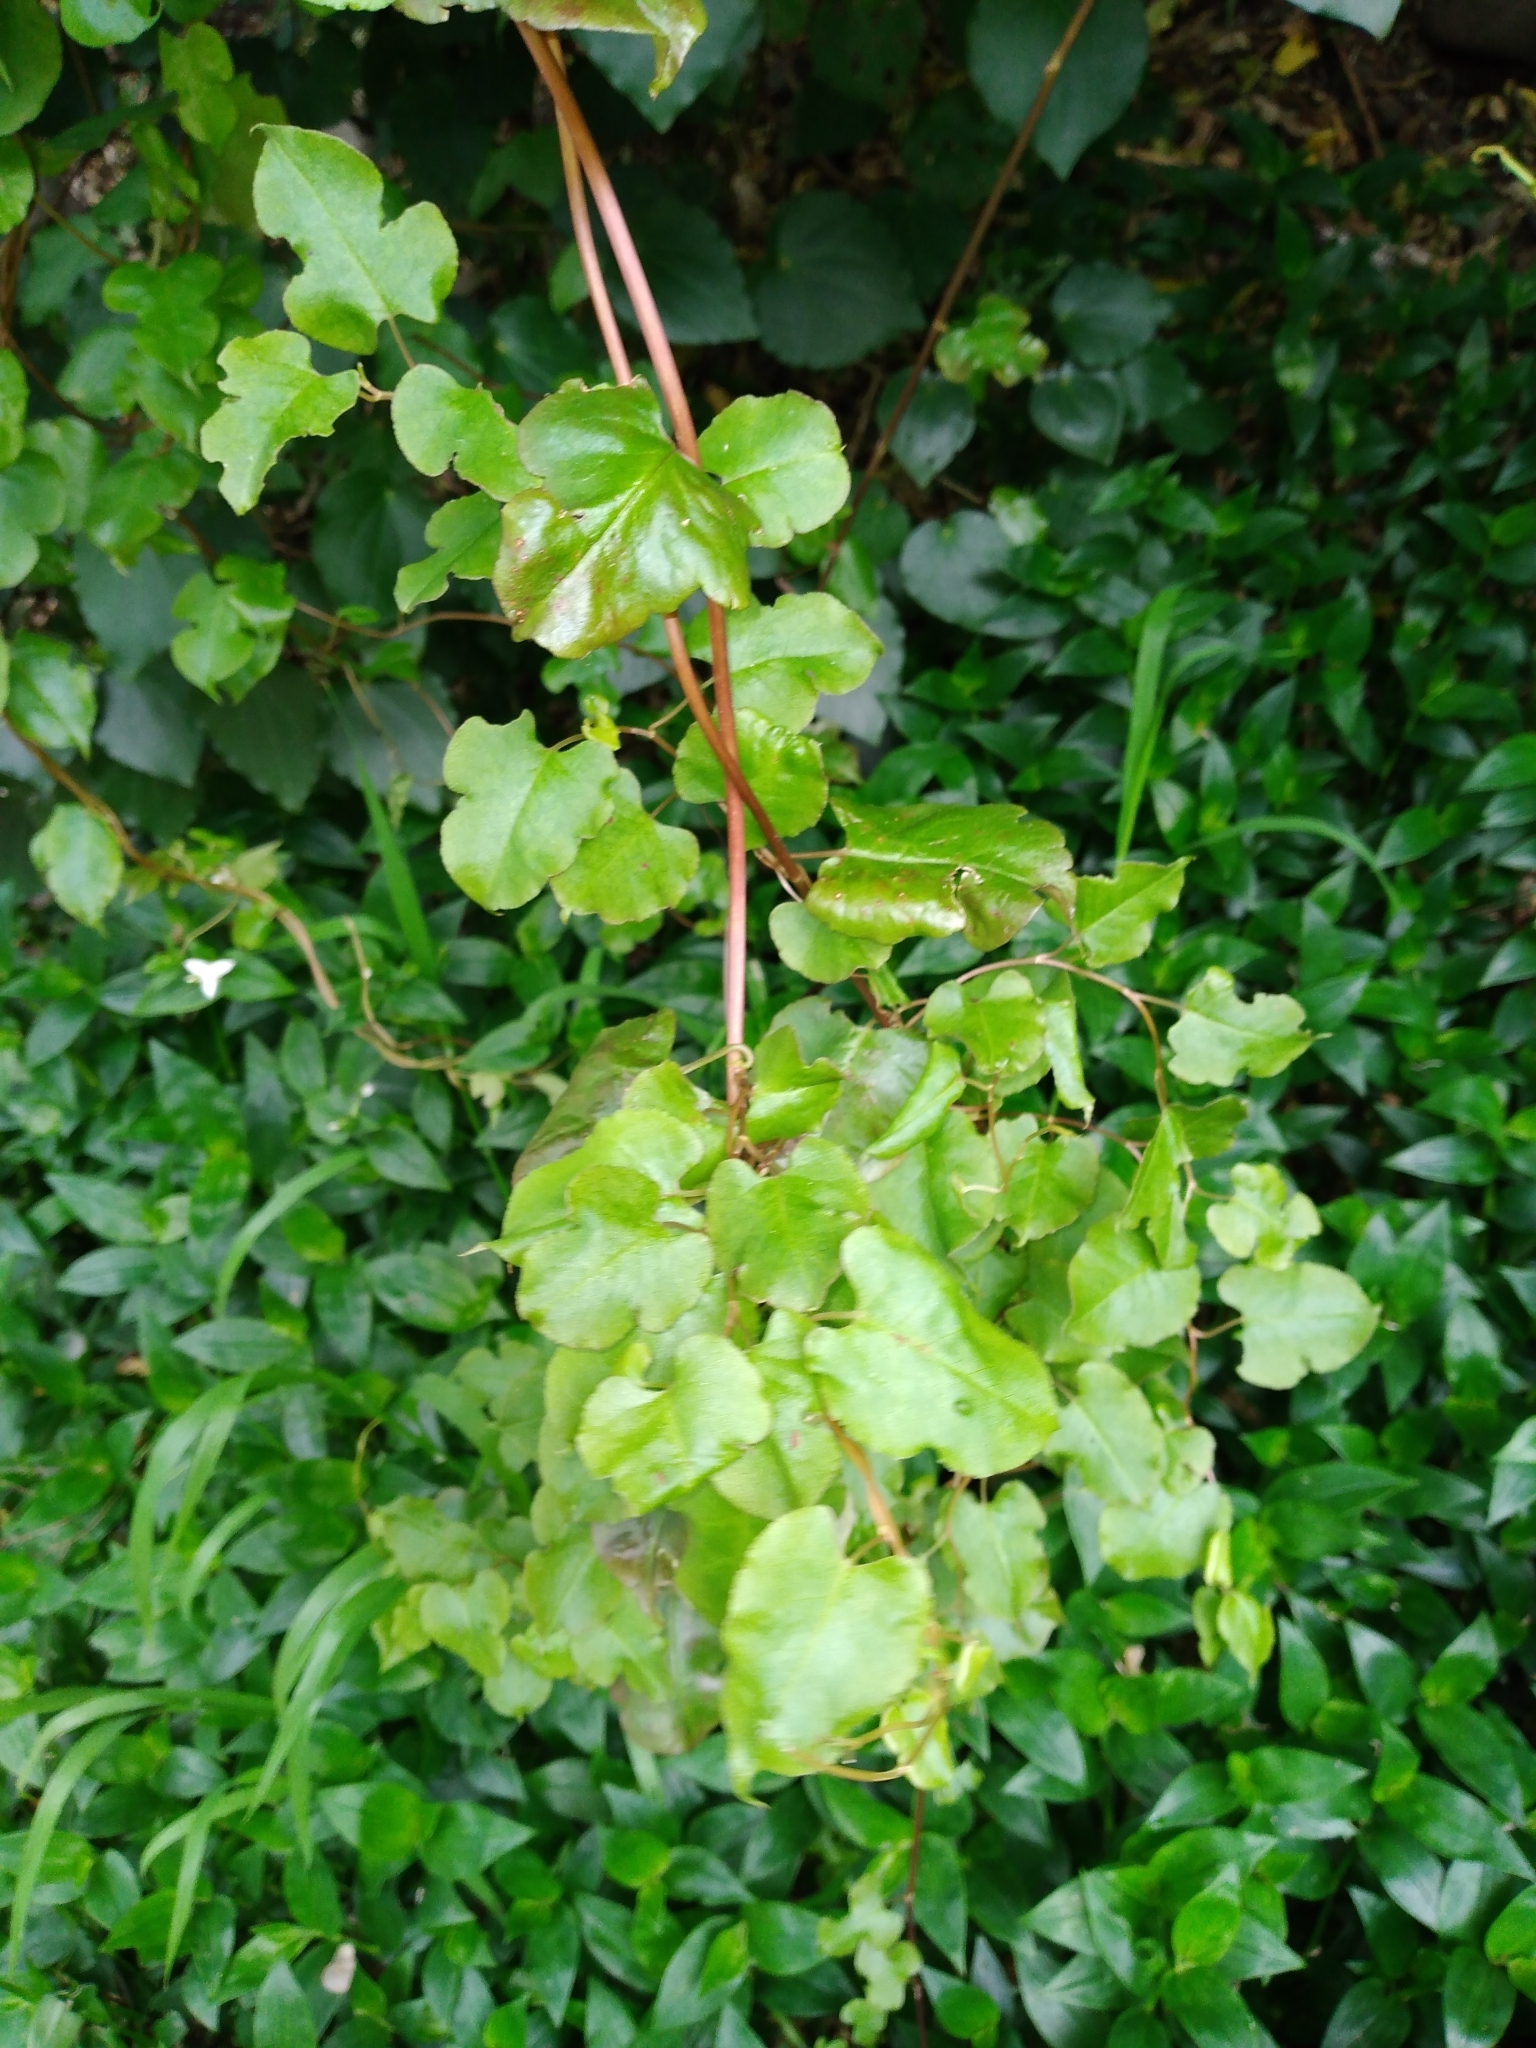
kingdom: Plantae
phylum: Tracheophyta
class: Magnoliopsida
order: Caryophyllales
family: Polygonaceae
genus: Muehlenbeckia
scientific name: Muehlenbeckia australis
